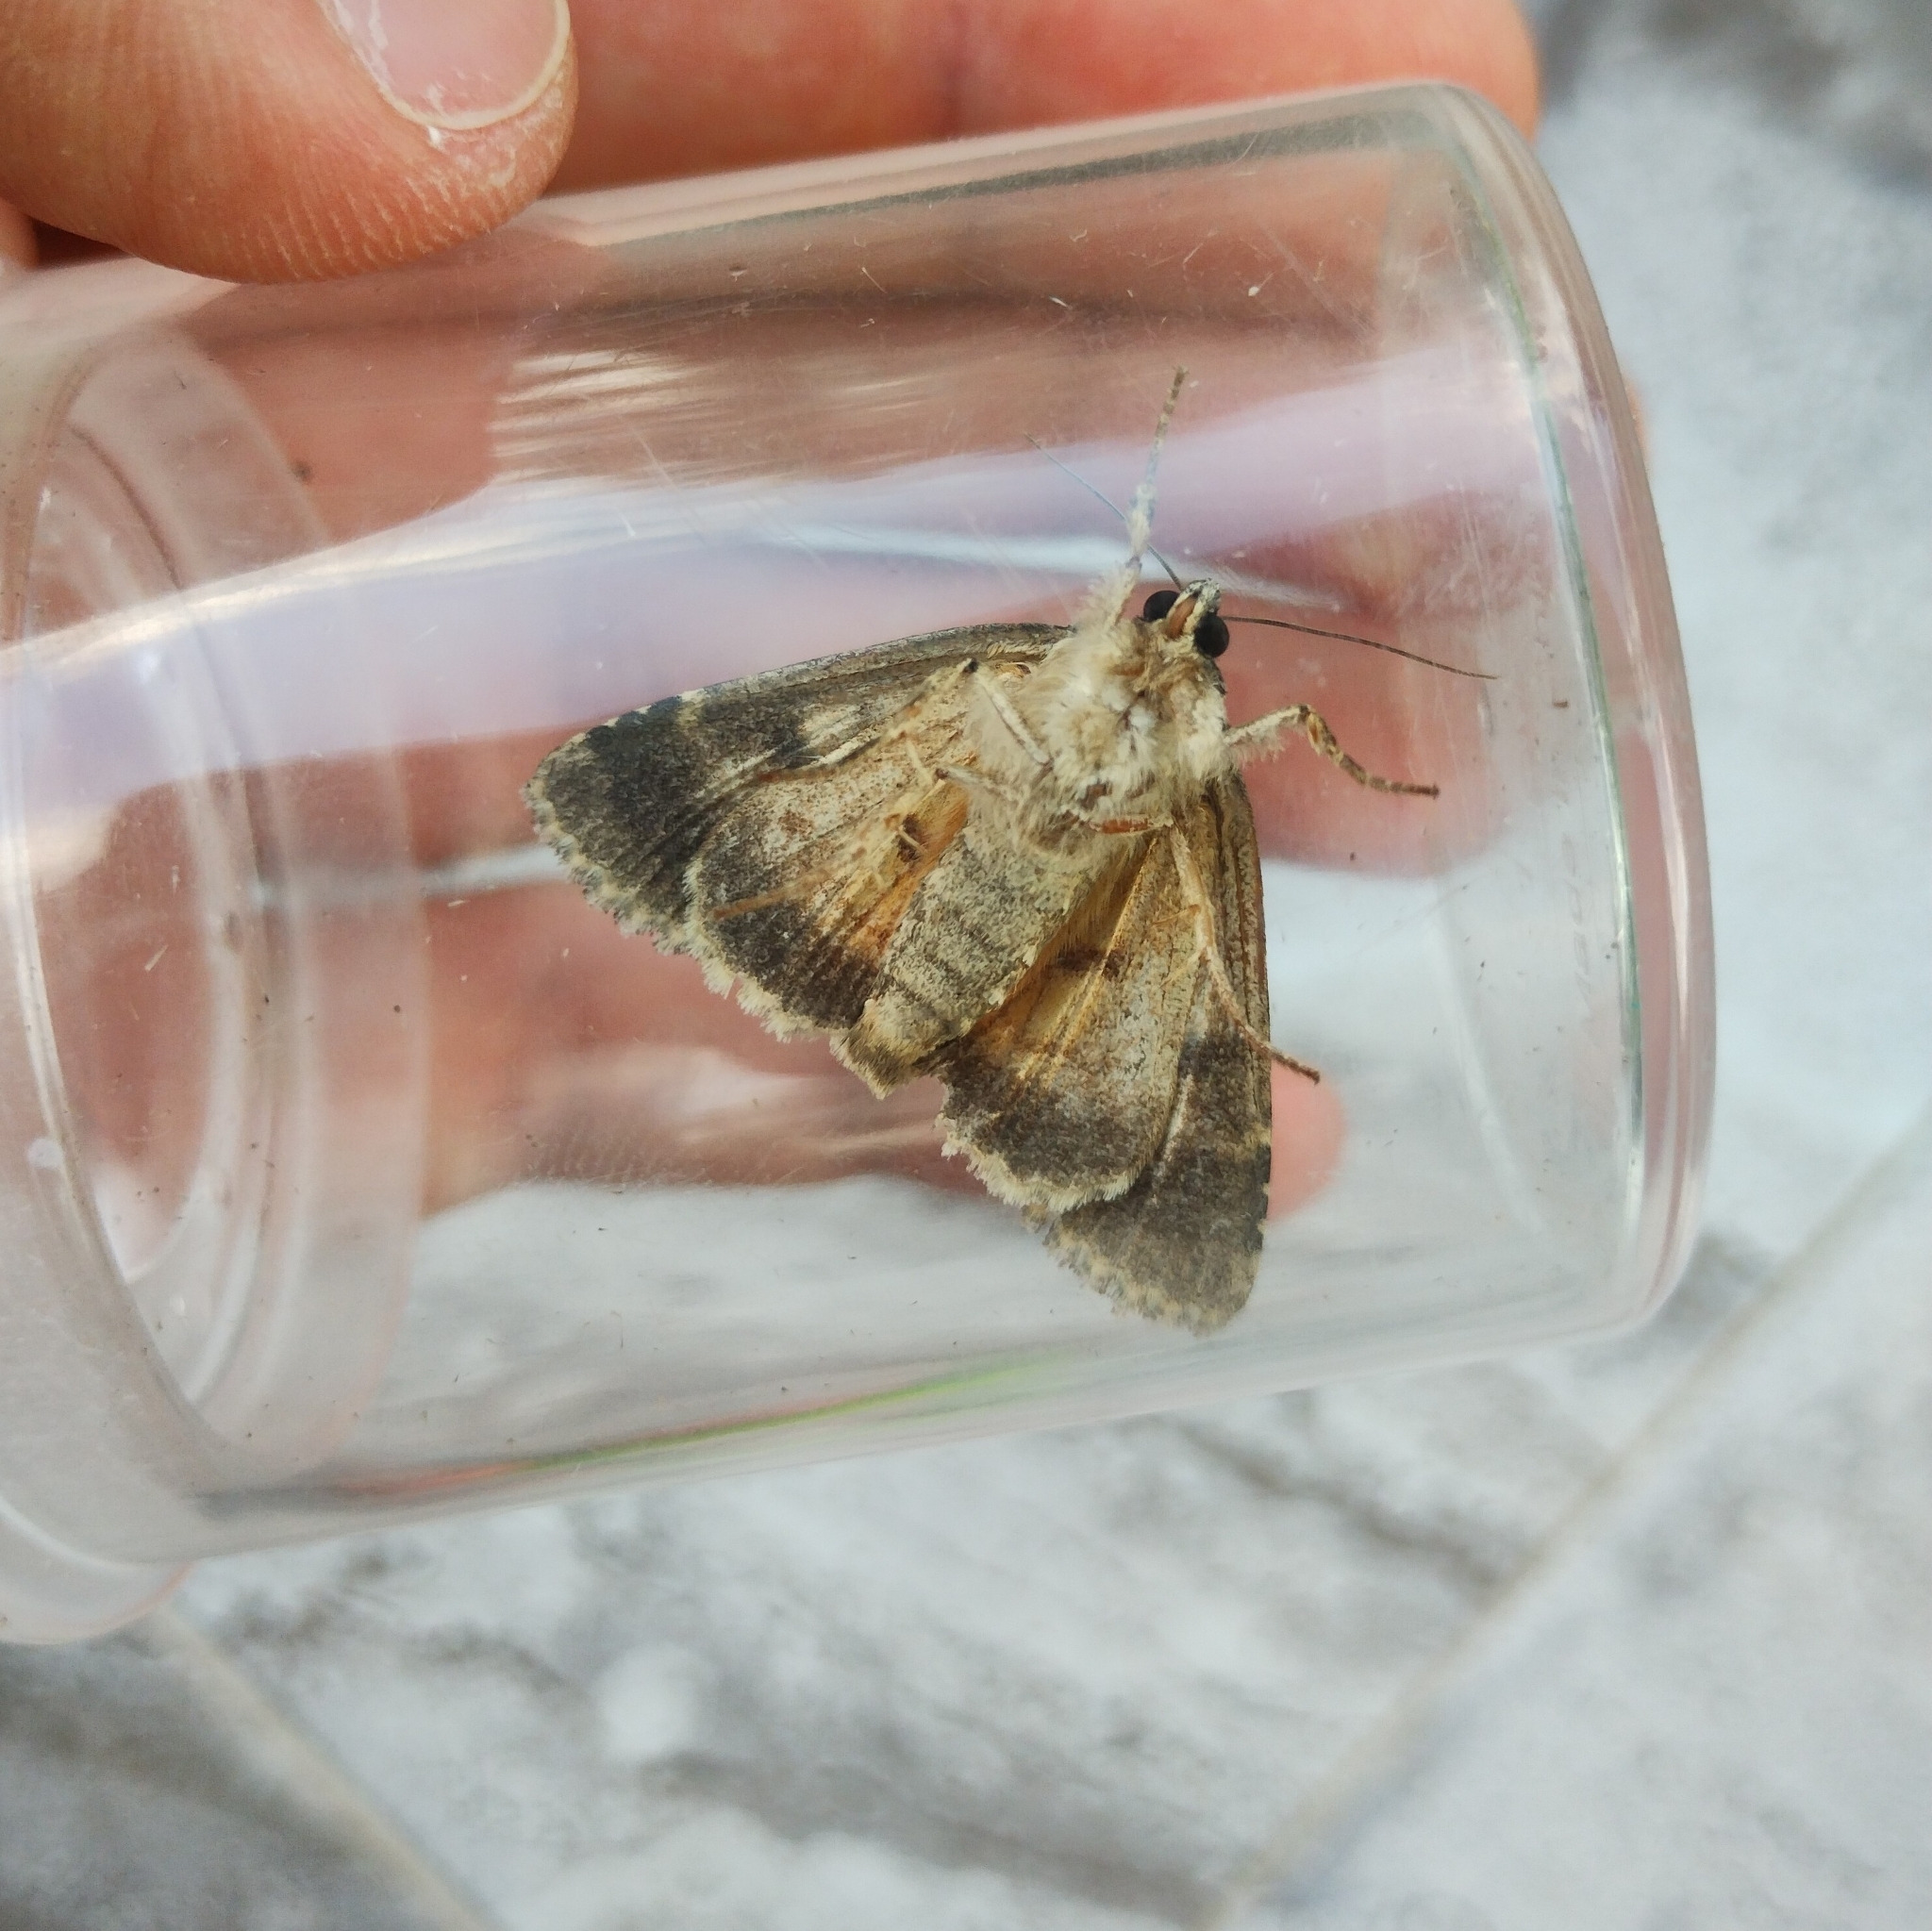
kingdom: Animalia
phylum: Arthropoda
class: Insecta
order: Lepidoptera
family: Noctuidae
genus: Polyphaenis
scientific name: Polyphaenis sericata
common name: Guernsey underwing
